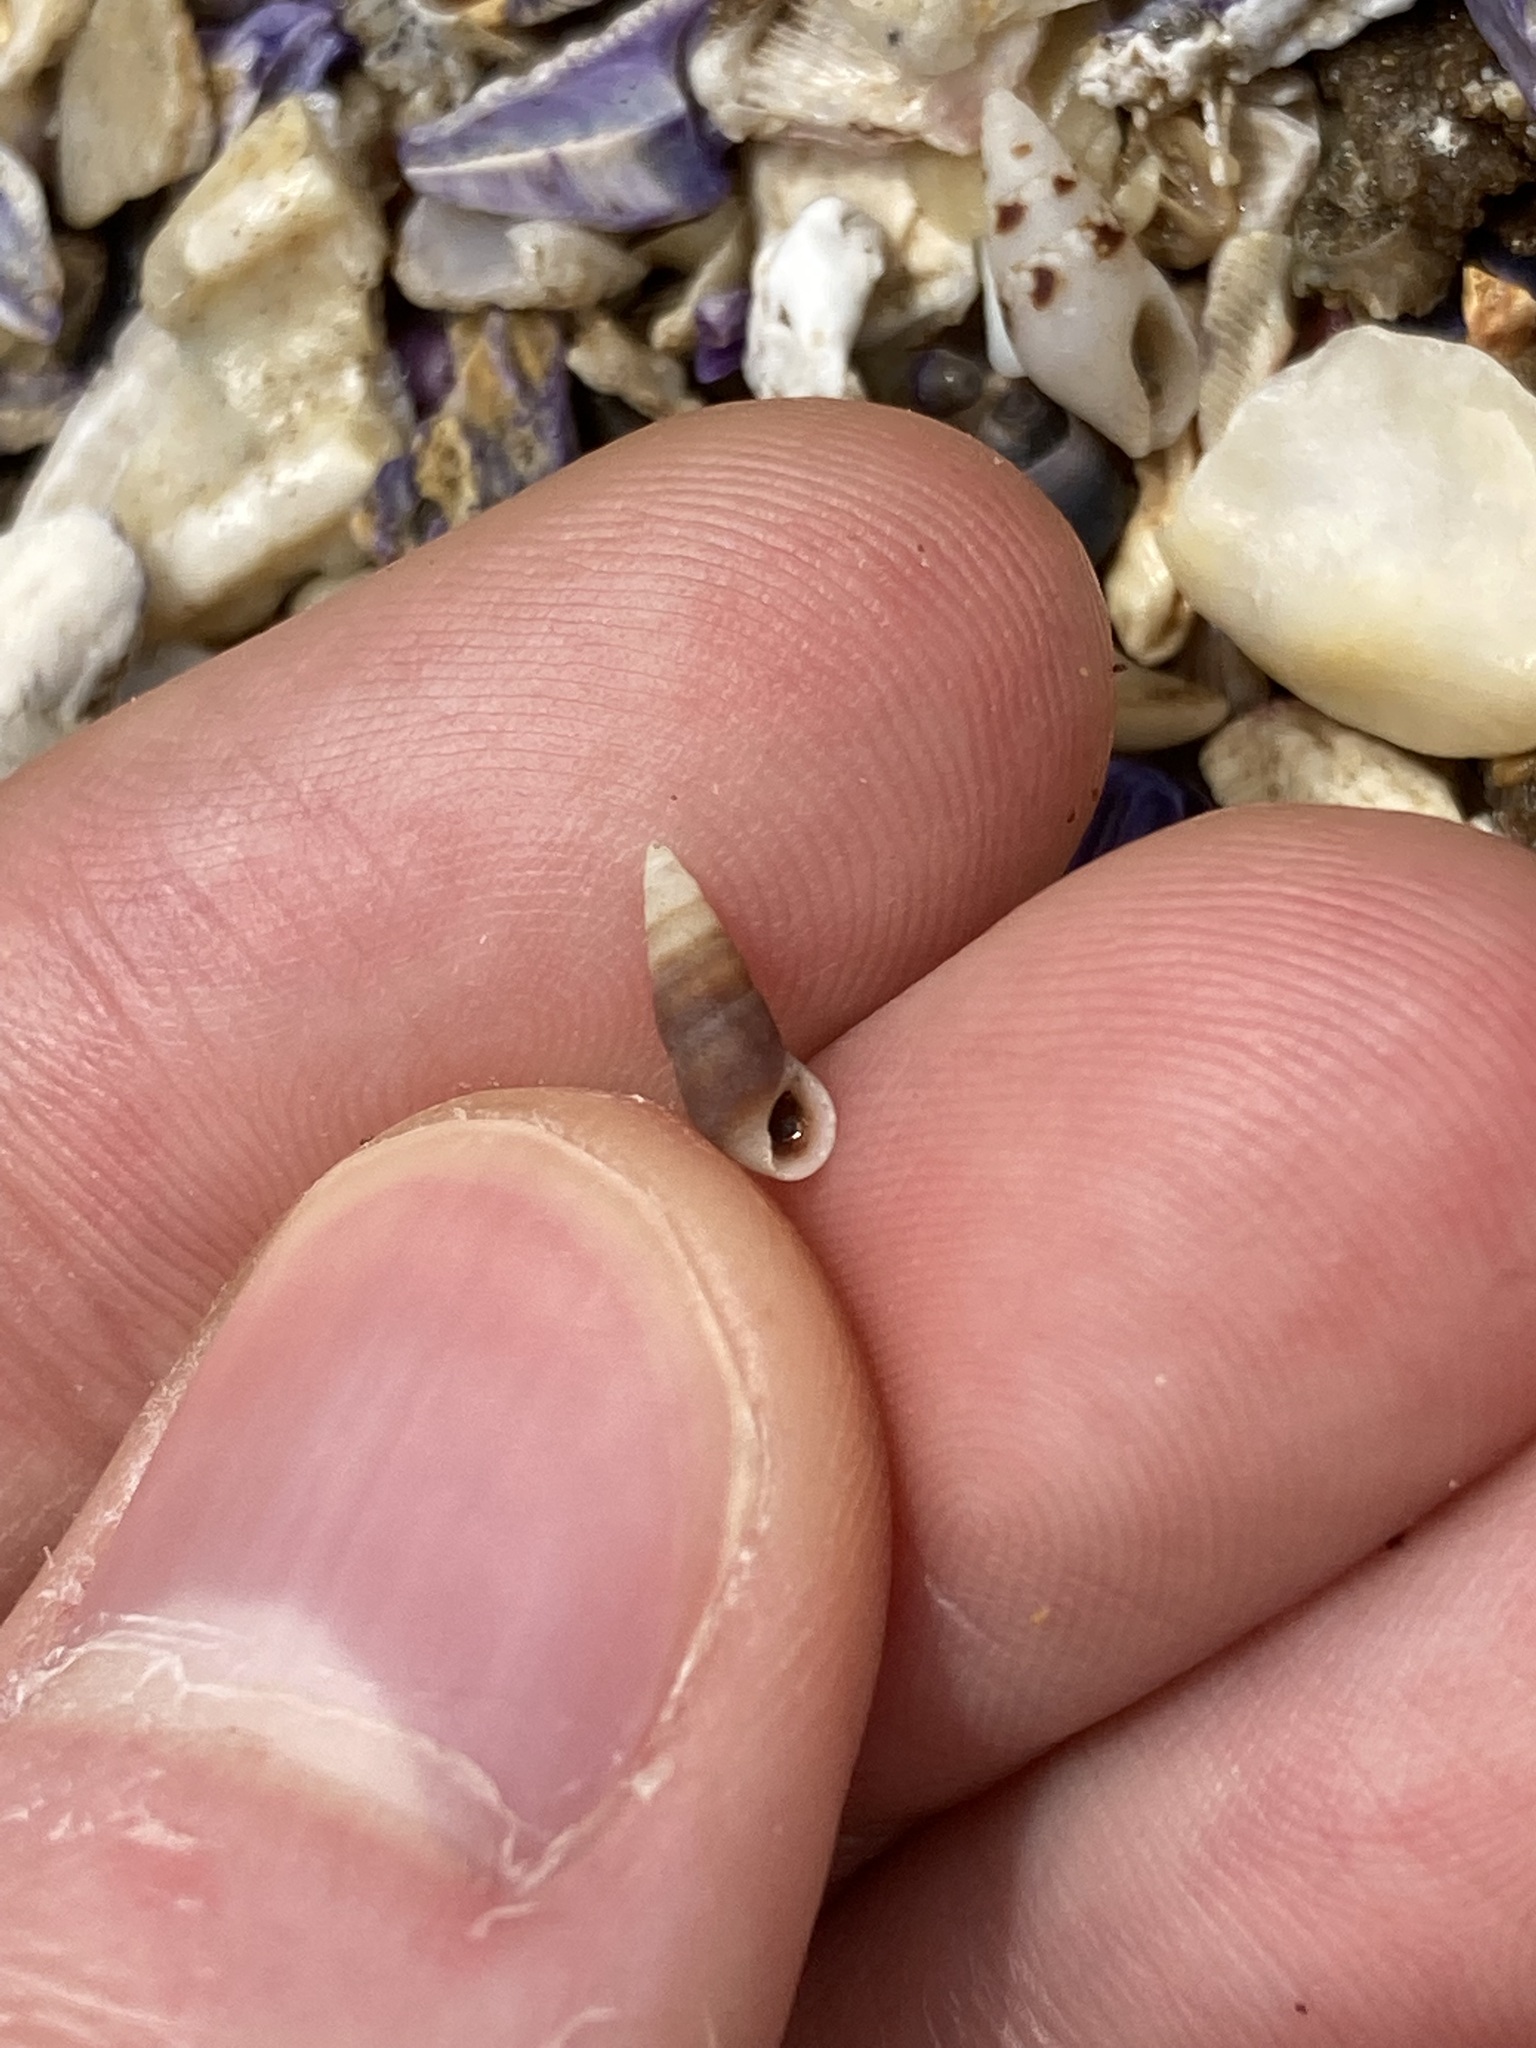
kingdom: Animalia
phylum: Mollusca
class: Gastropoda
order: Littorinimorpha
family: Rissoinidae
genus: Rissoina
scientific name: Rissoina fasciata
